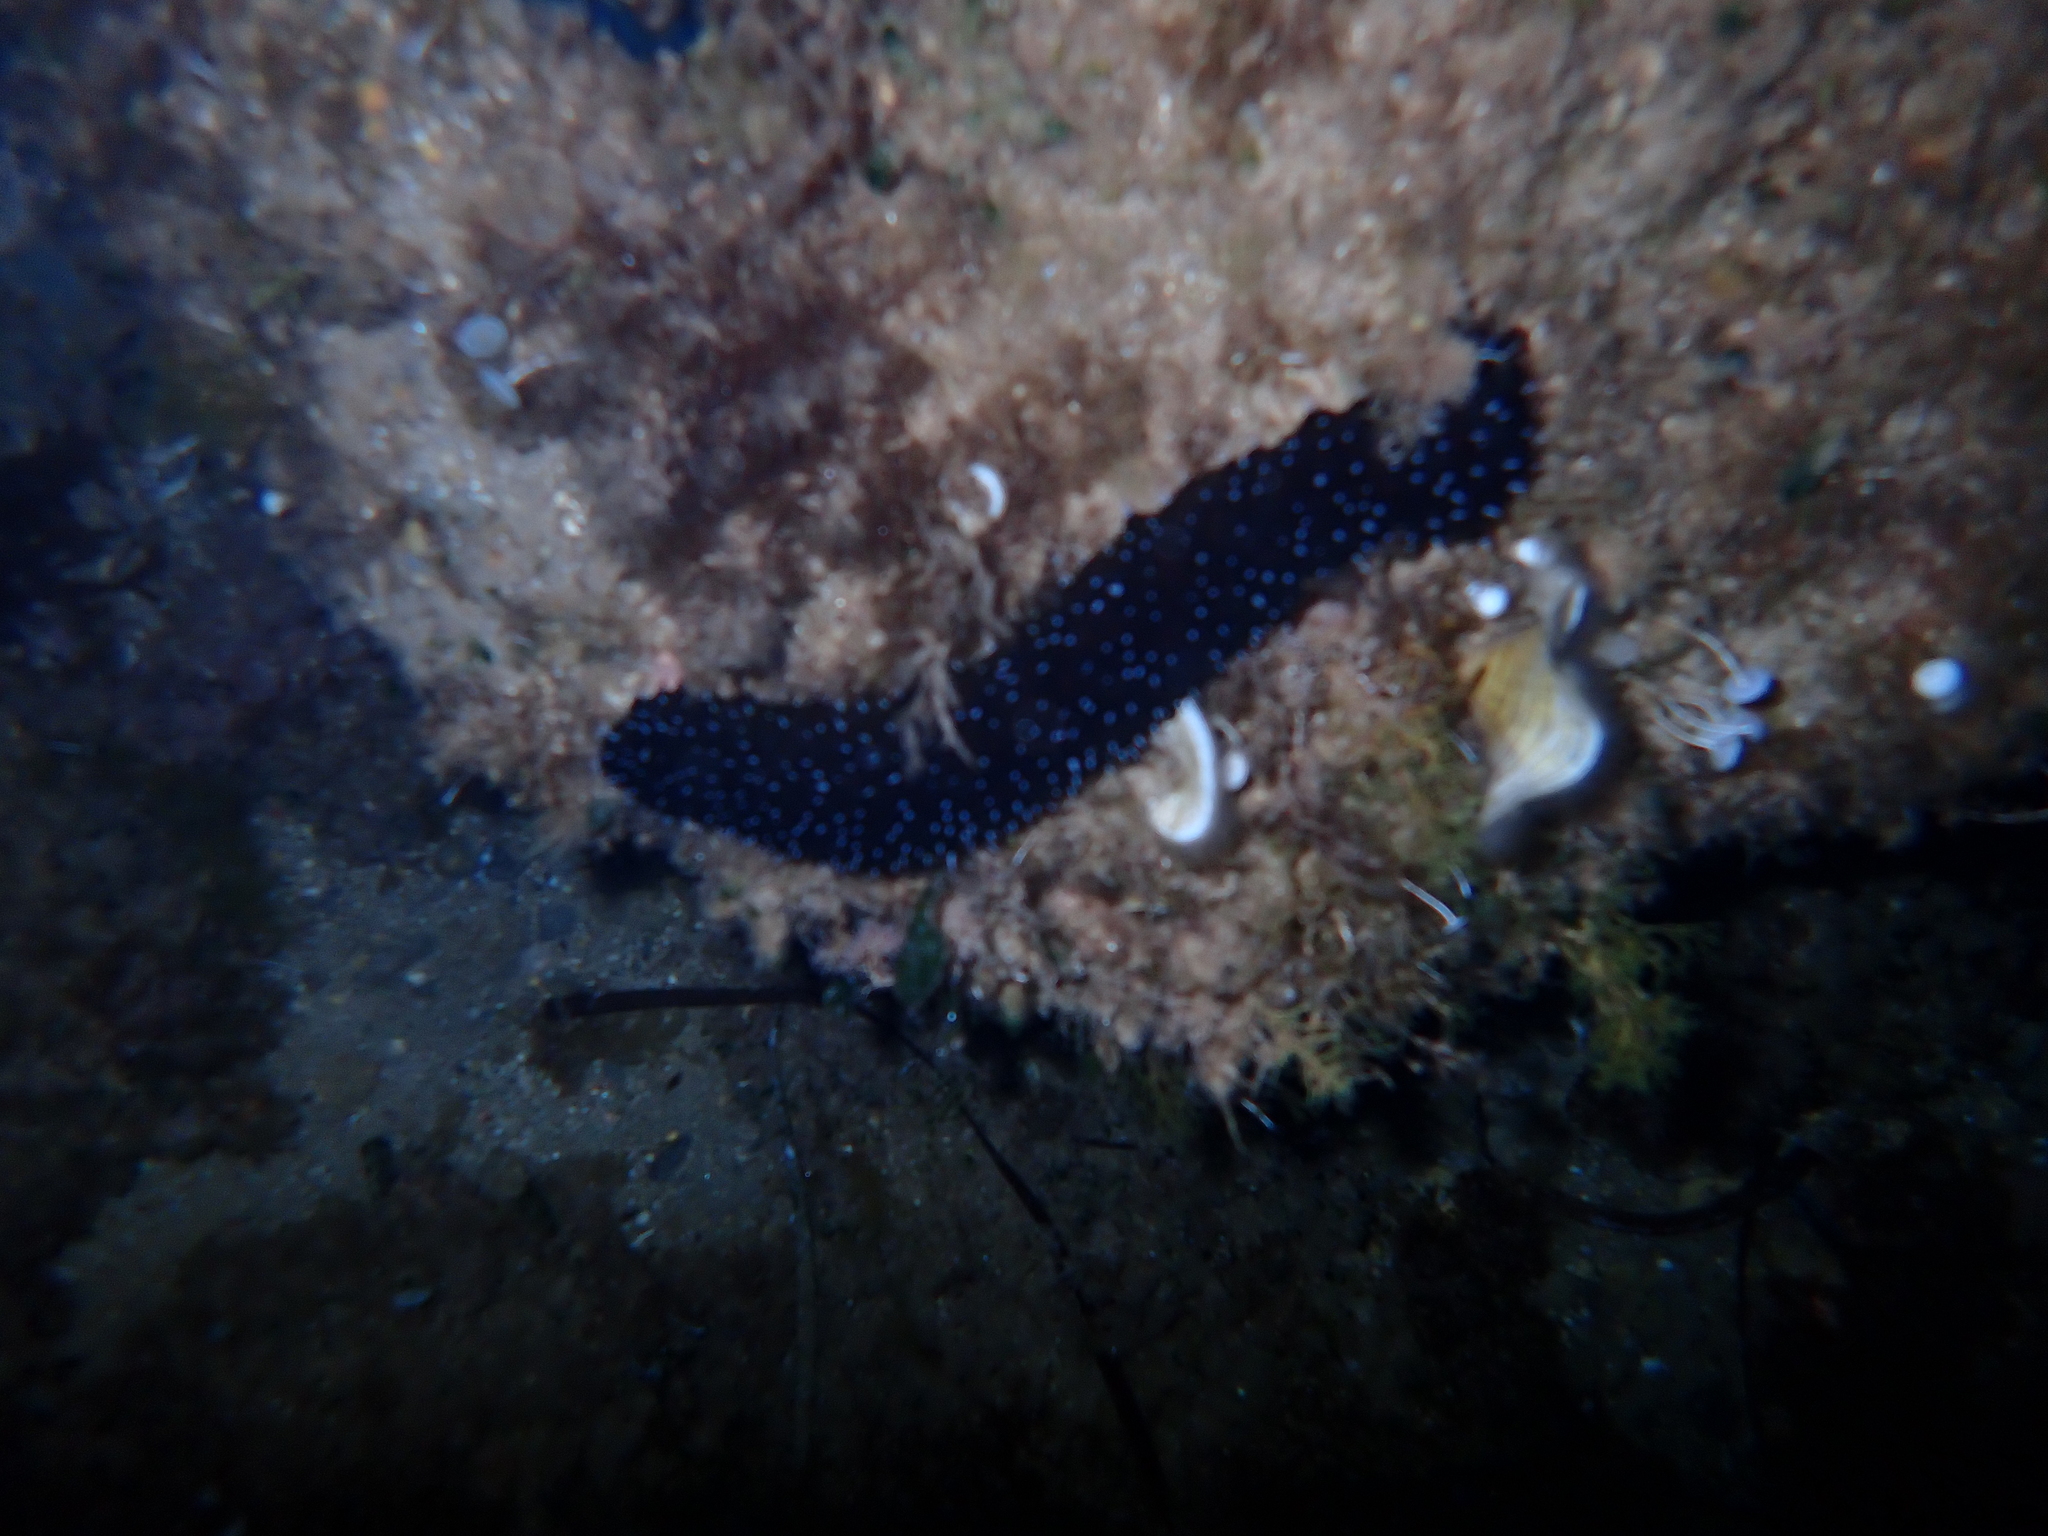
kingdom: Animalia
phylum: Echinodermata
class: Holothuroidea
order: Holothuriida
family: Holothuriidae
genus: Holothuria
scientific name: Holothuria forskali
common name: Black sea cucumber
